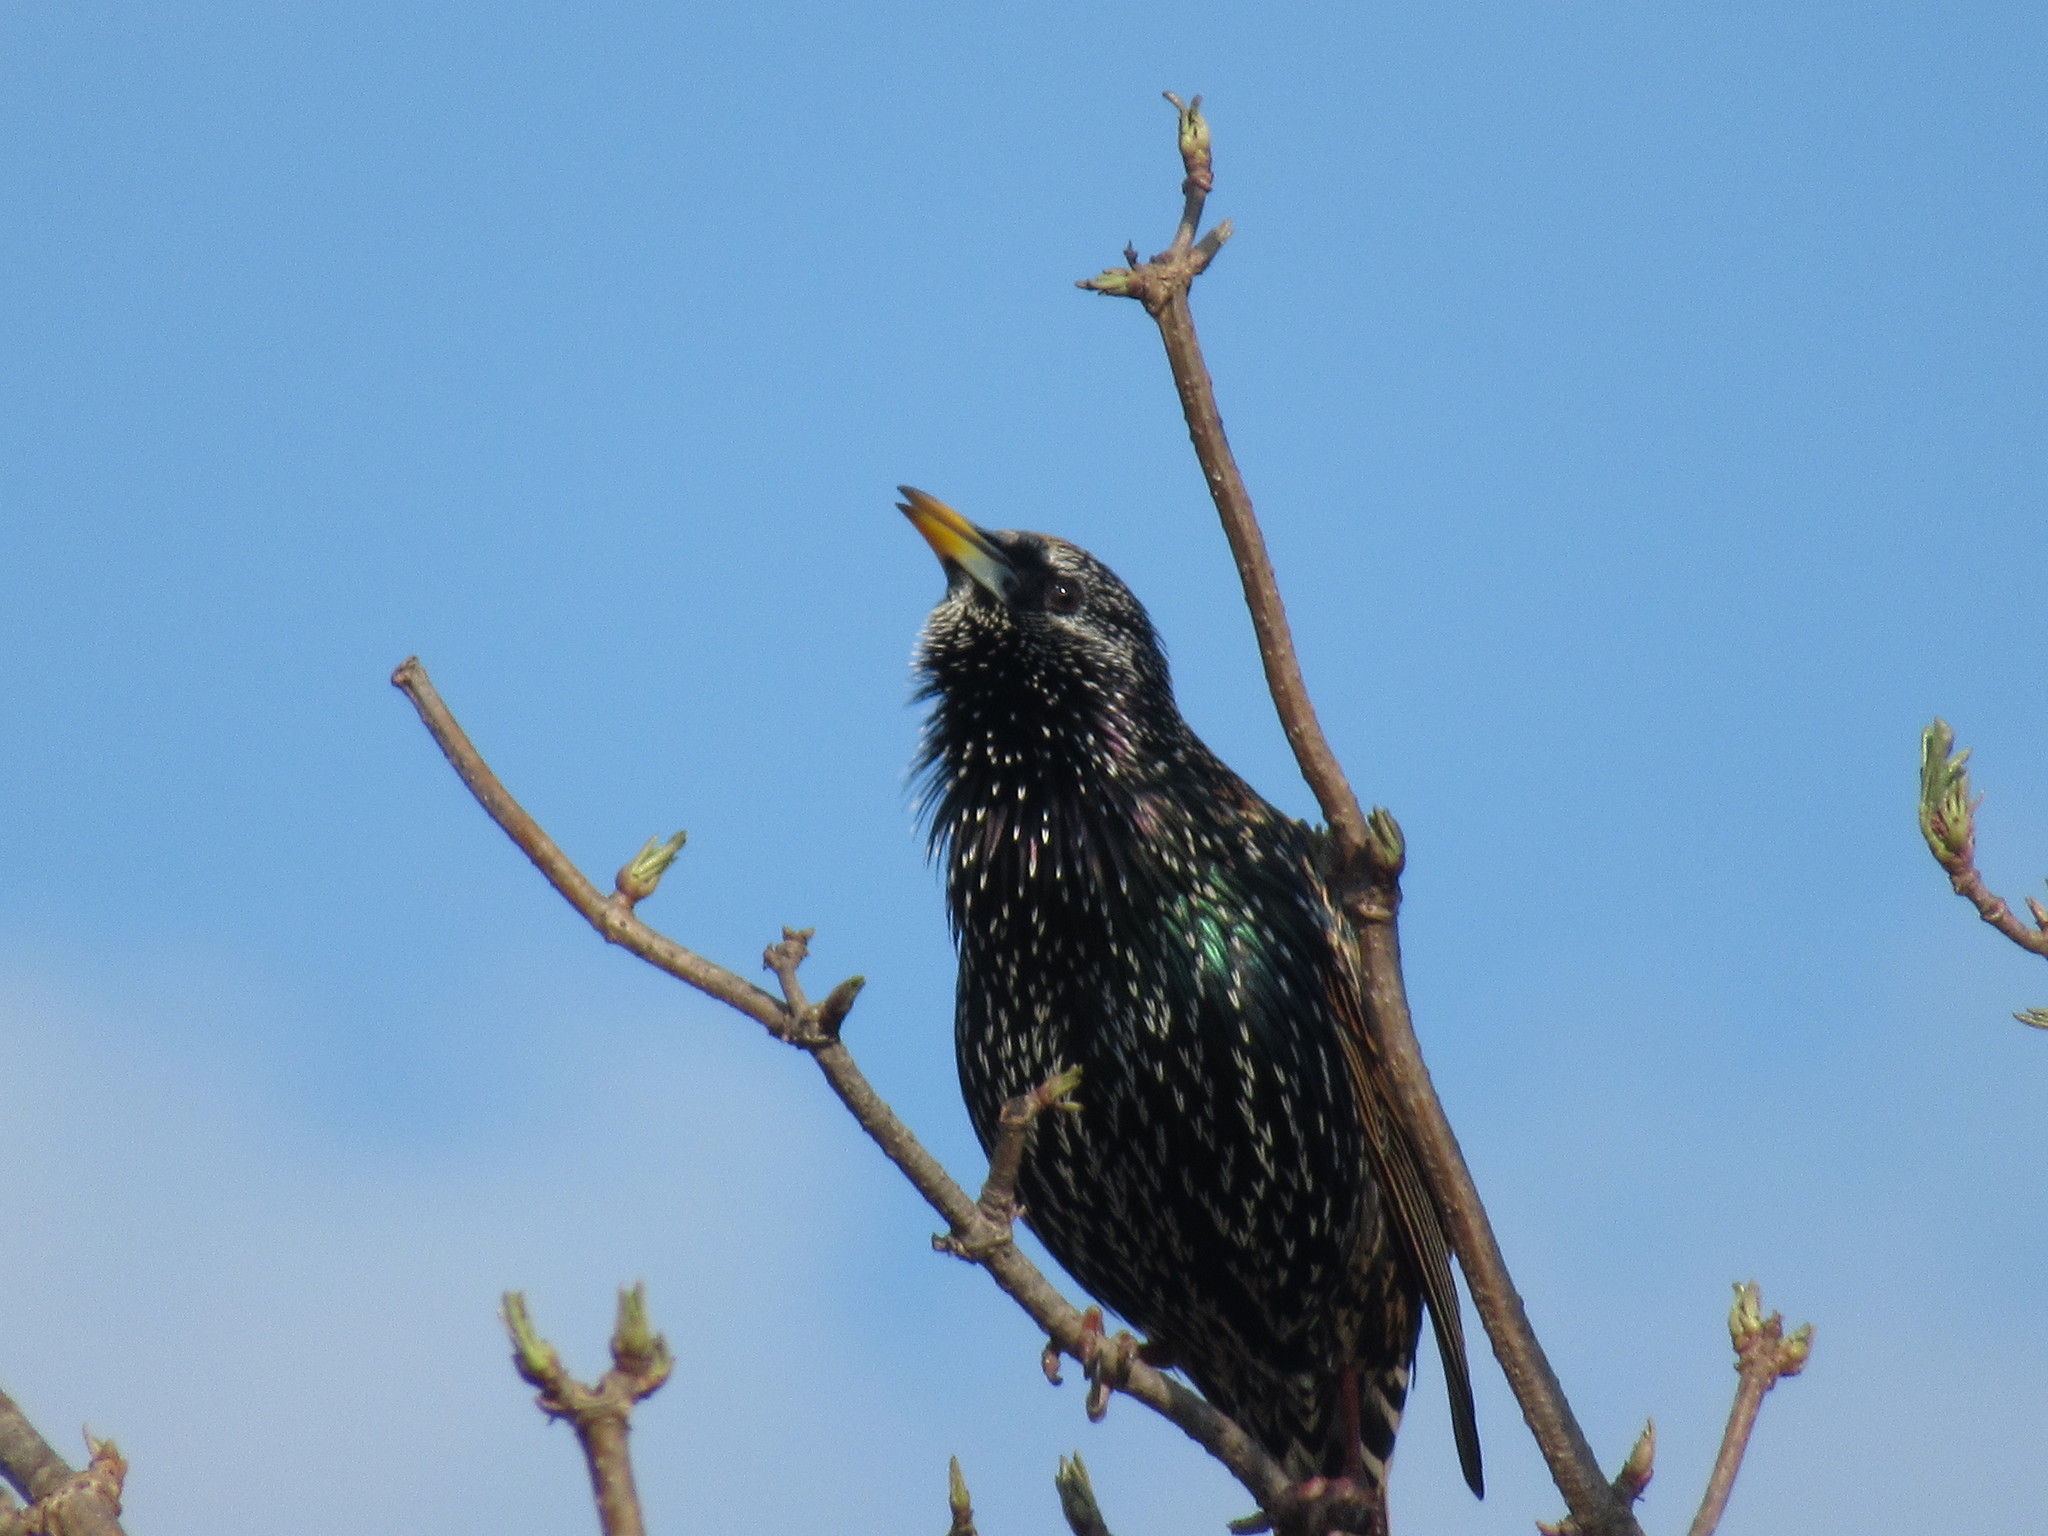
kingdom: Animalia
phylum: Chordata
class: Aves
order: Passeriformes
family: Sturnidae
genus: Sturnus
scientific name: Sturnus vulgaris
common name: Common starling
